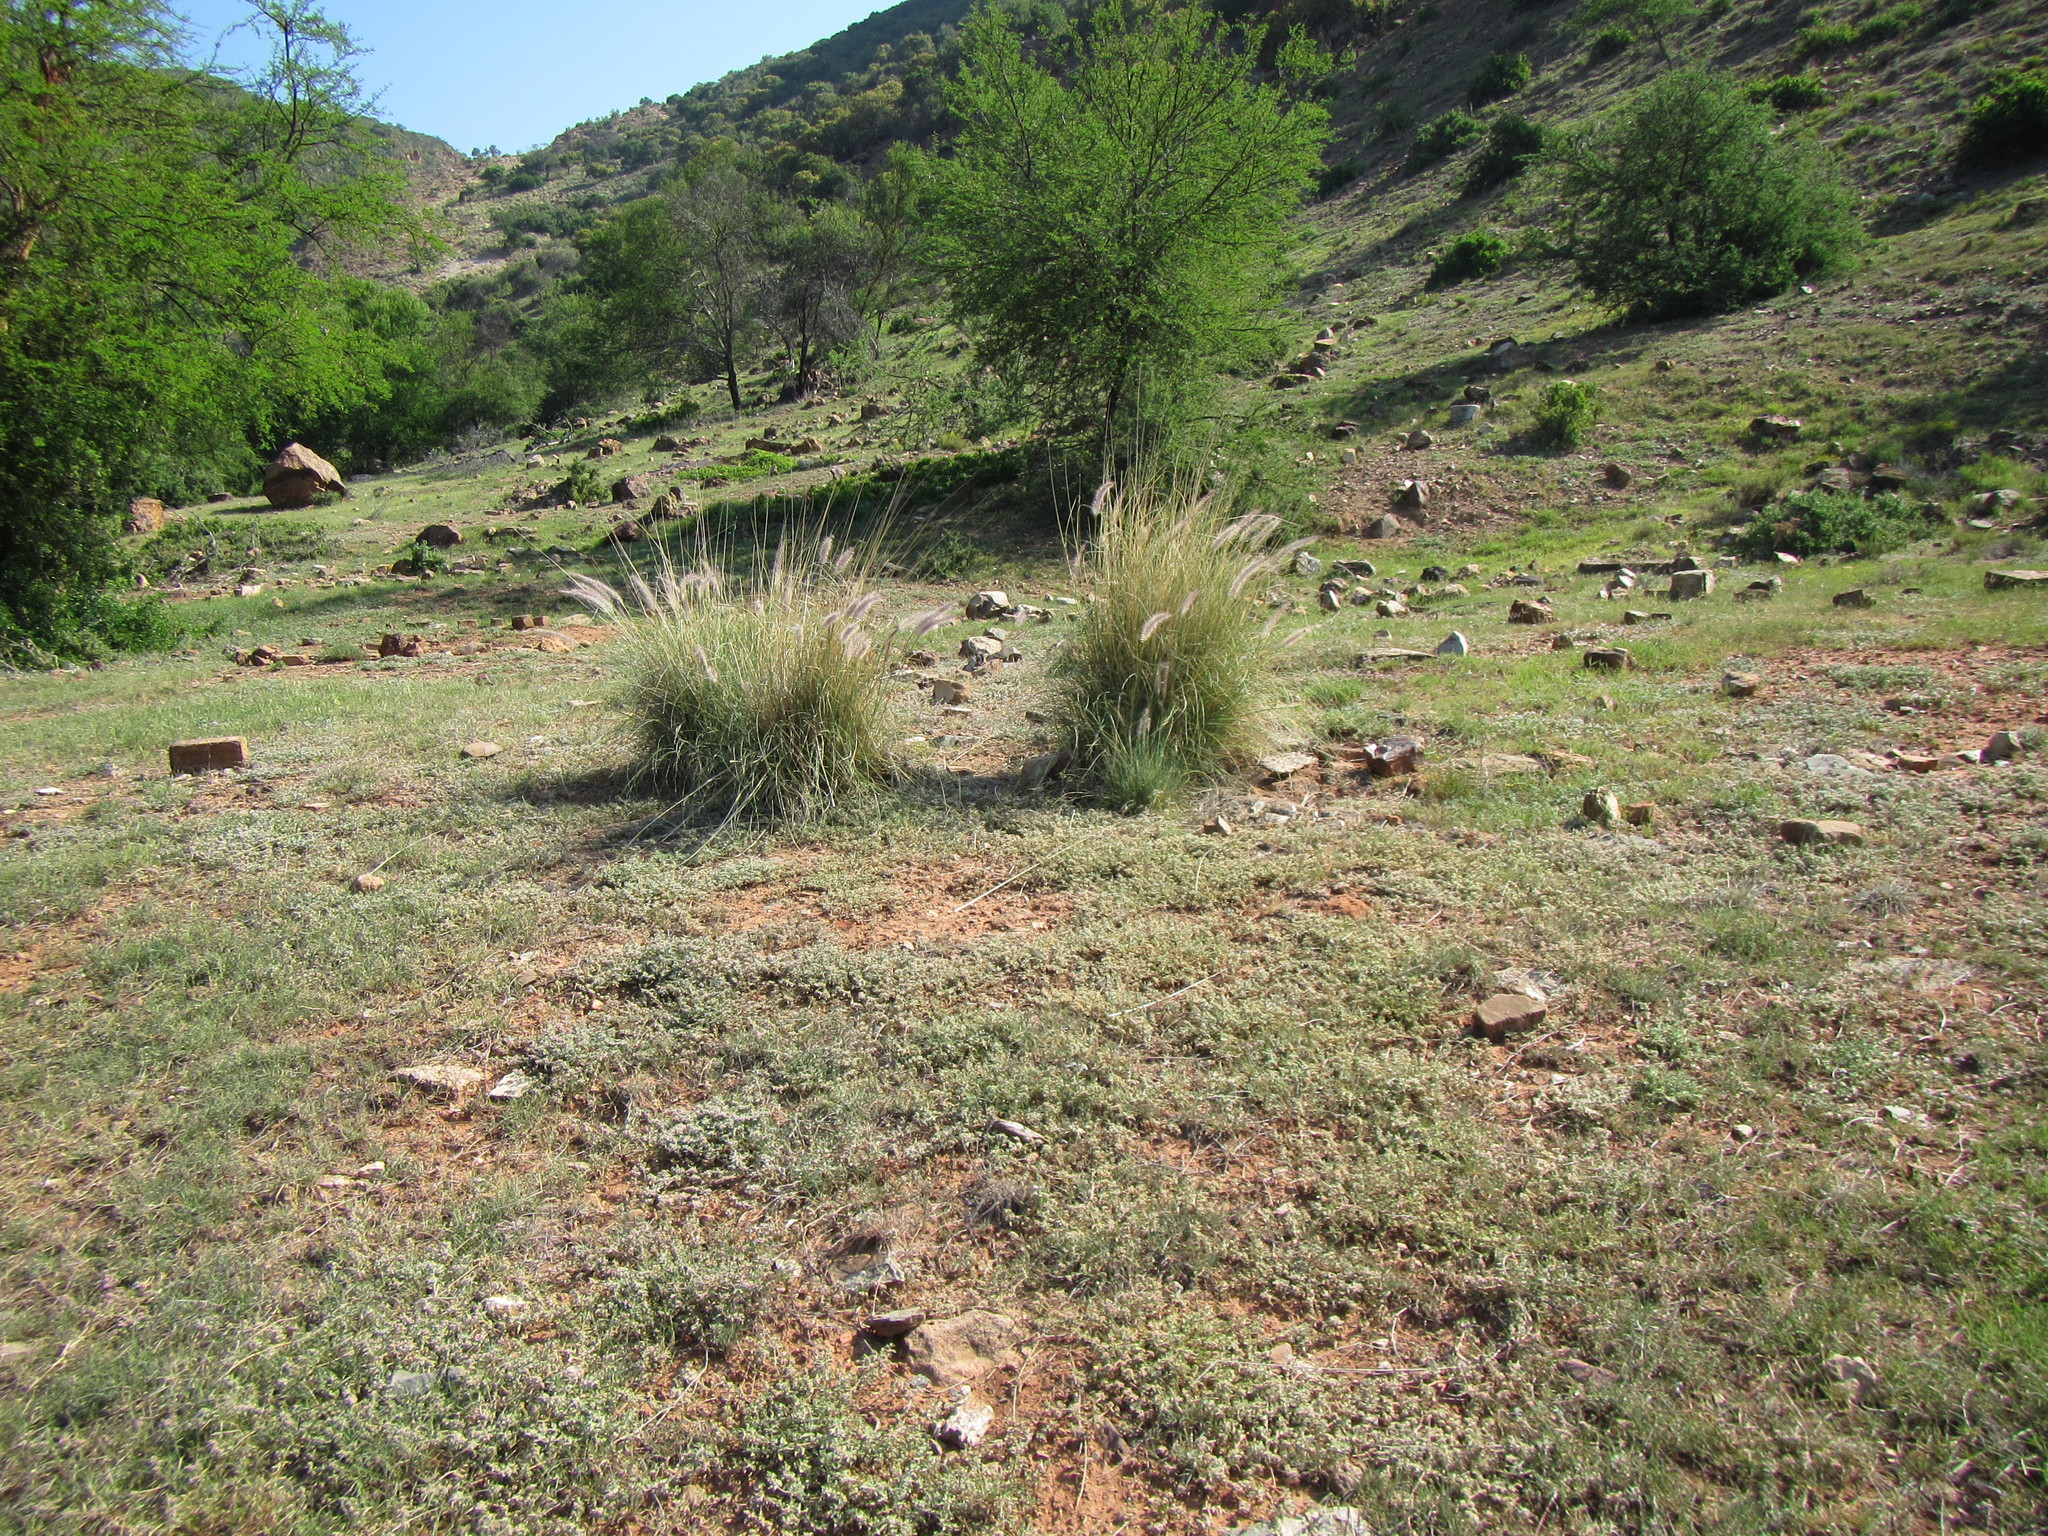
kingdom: Plantae
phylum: Tracheophyta
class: Liliopsida
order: Poales
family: Poaceae
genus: Cenchrus
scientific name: Cenchrus setaceus
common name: Crimson fountaingrass
